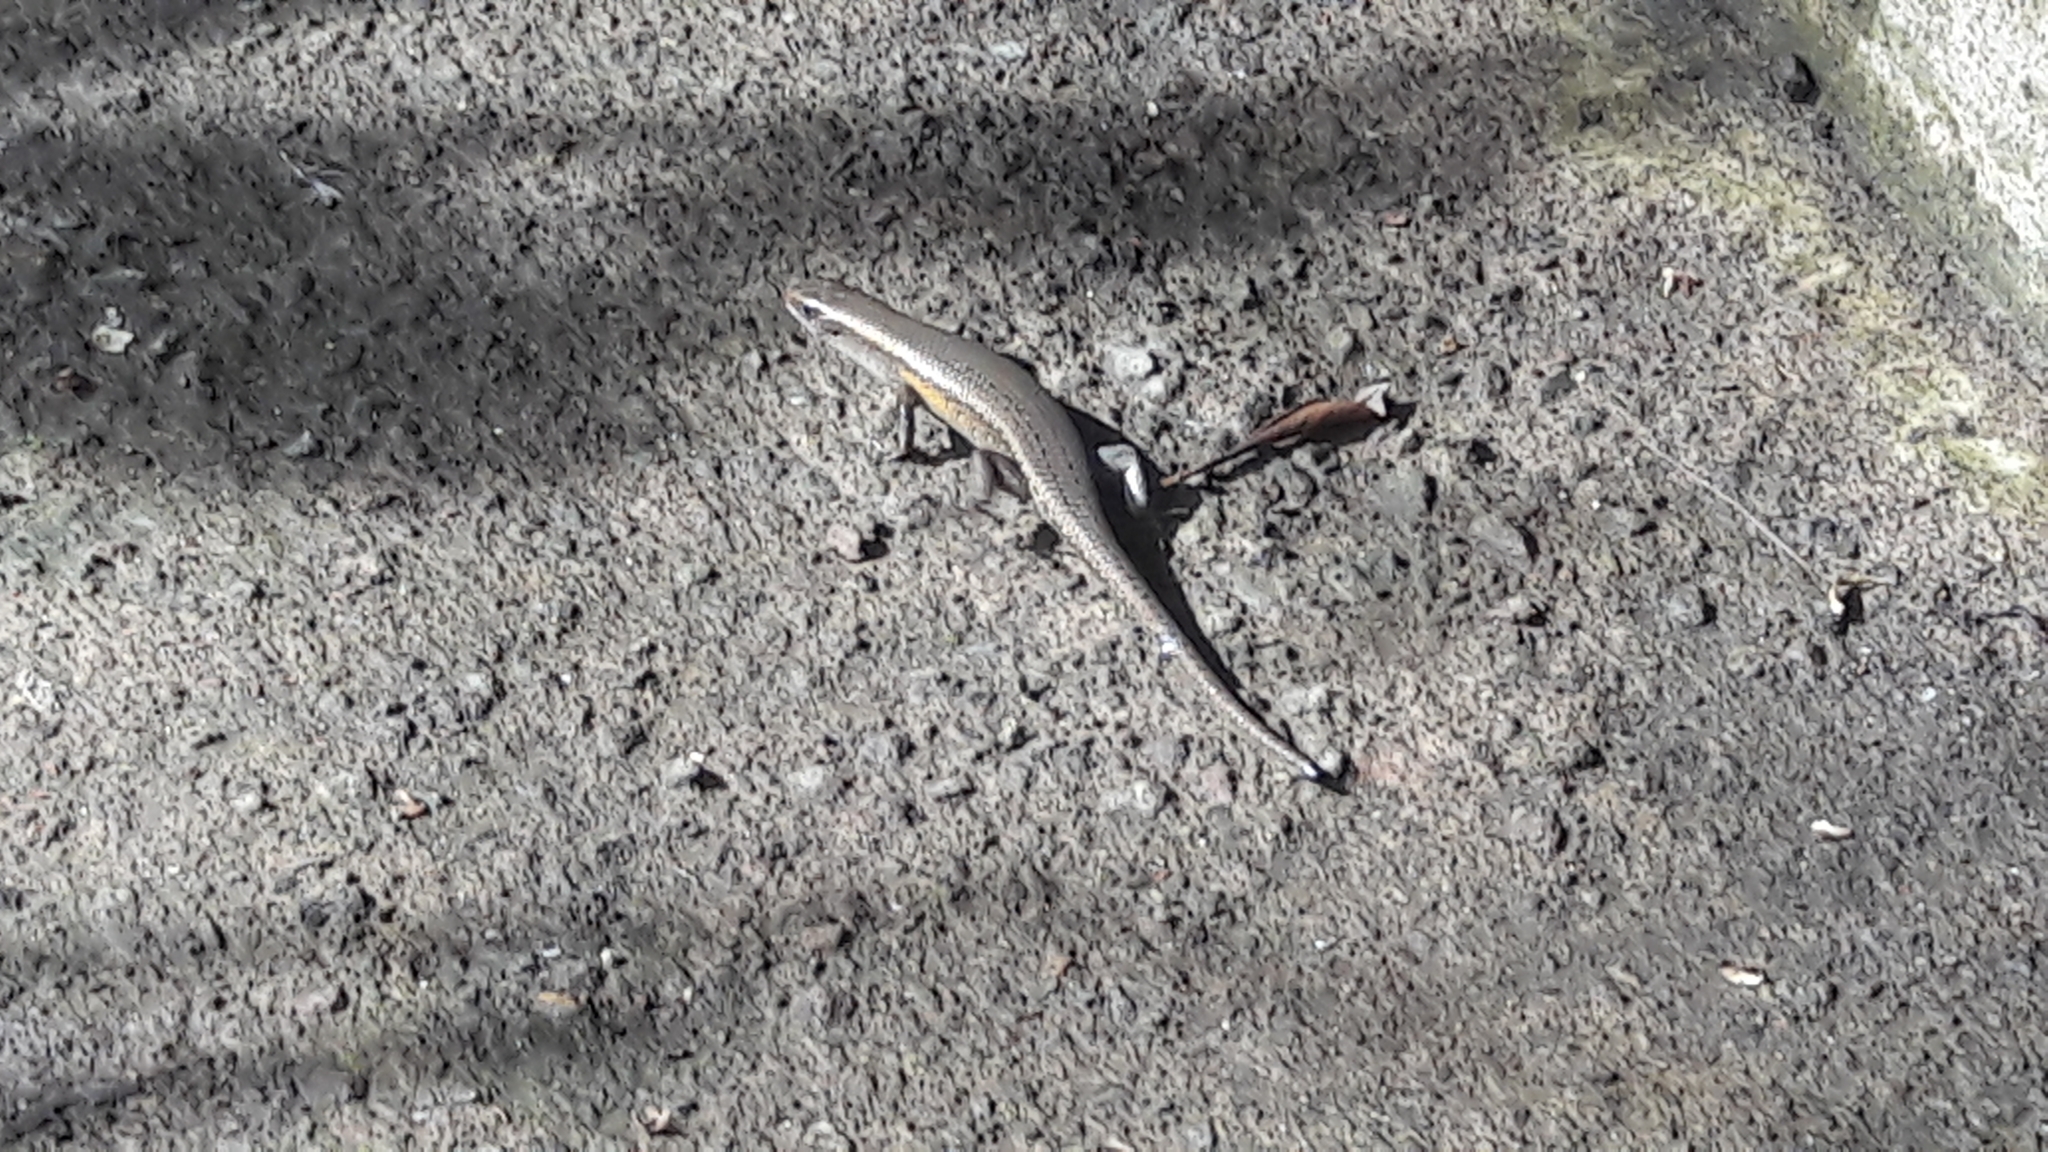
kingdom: Animalia
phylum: Chordata
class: Squamata
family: Scincidae
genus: Eutropis
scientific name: Eutropis multifasciata
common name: Common mabuya
